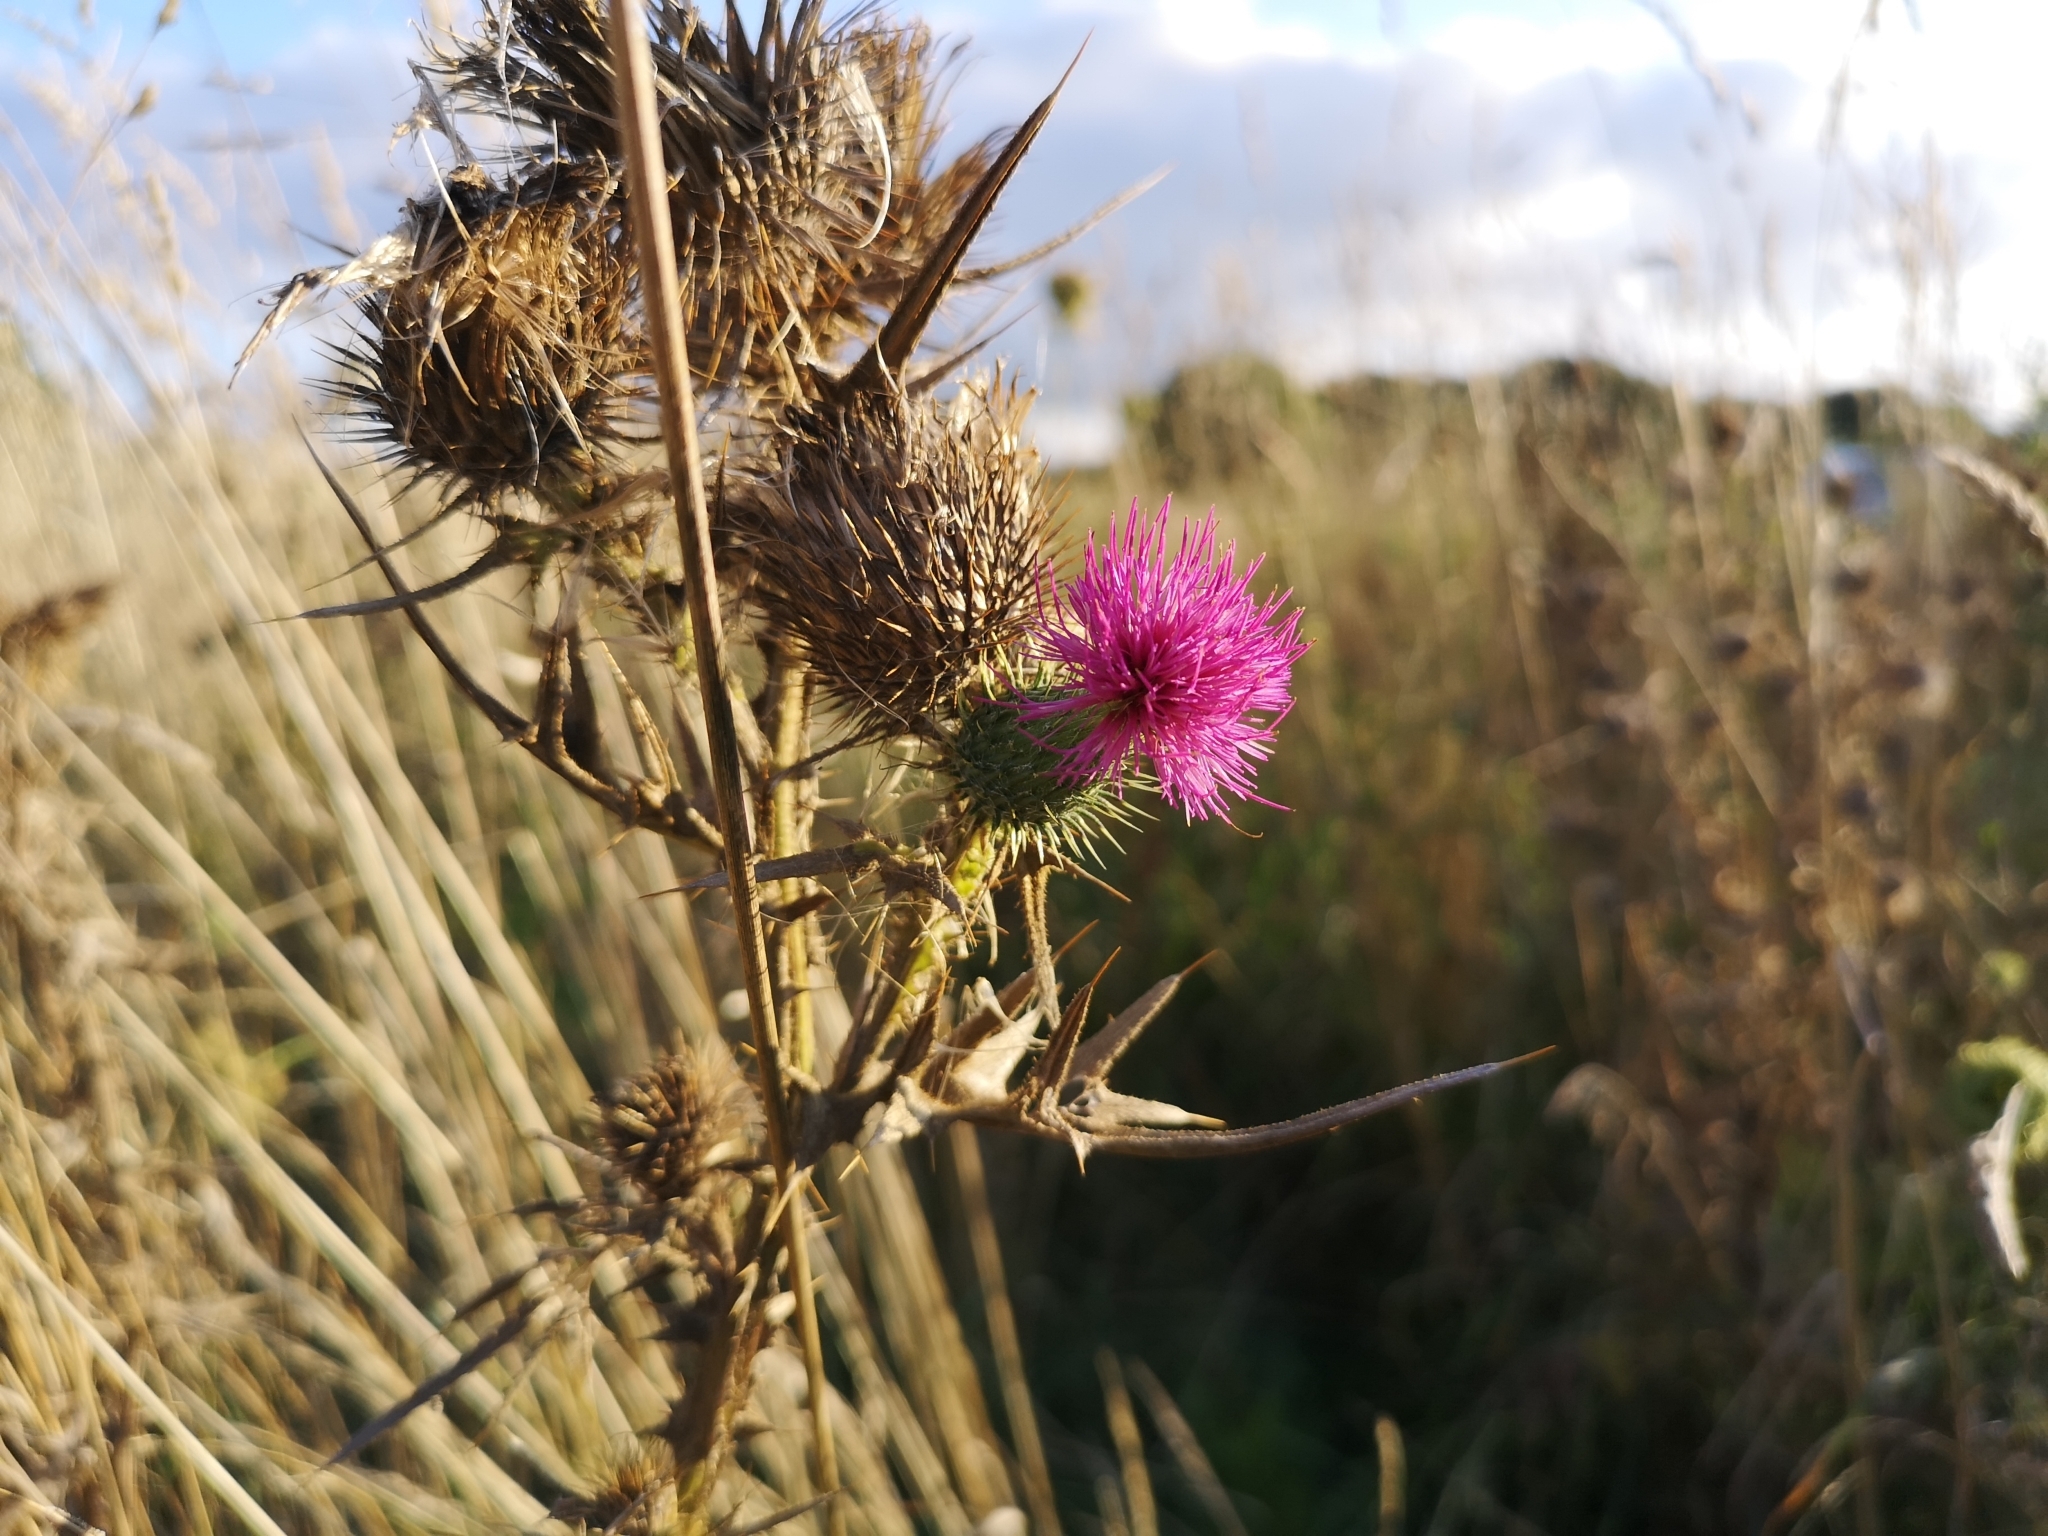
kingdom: Plantae
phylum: Tracheophyta
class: Magnoliopsida
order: Asterales
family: Asteraceae
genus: Cirsium
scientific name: Cirsium vulgare
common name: Bull thistle
